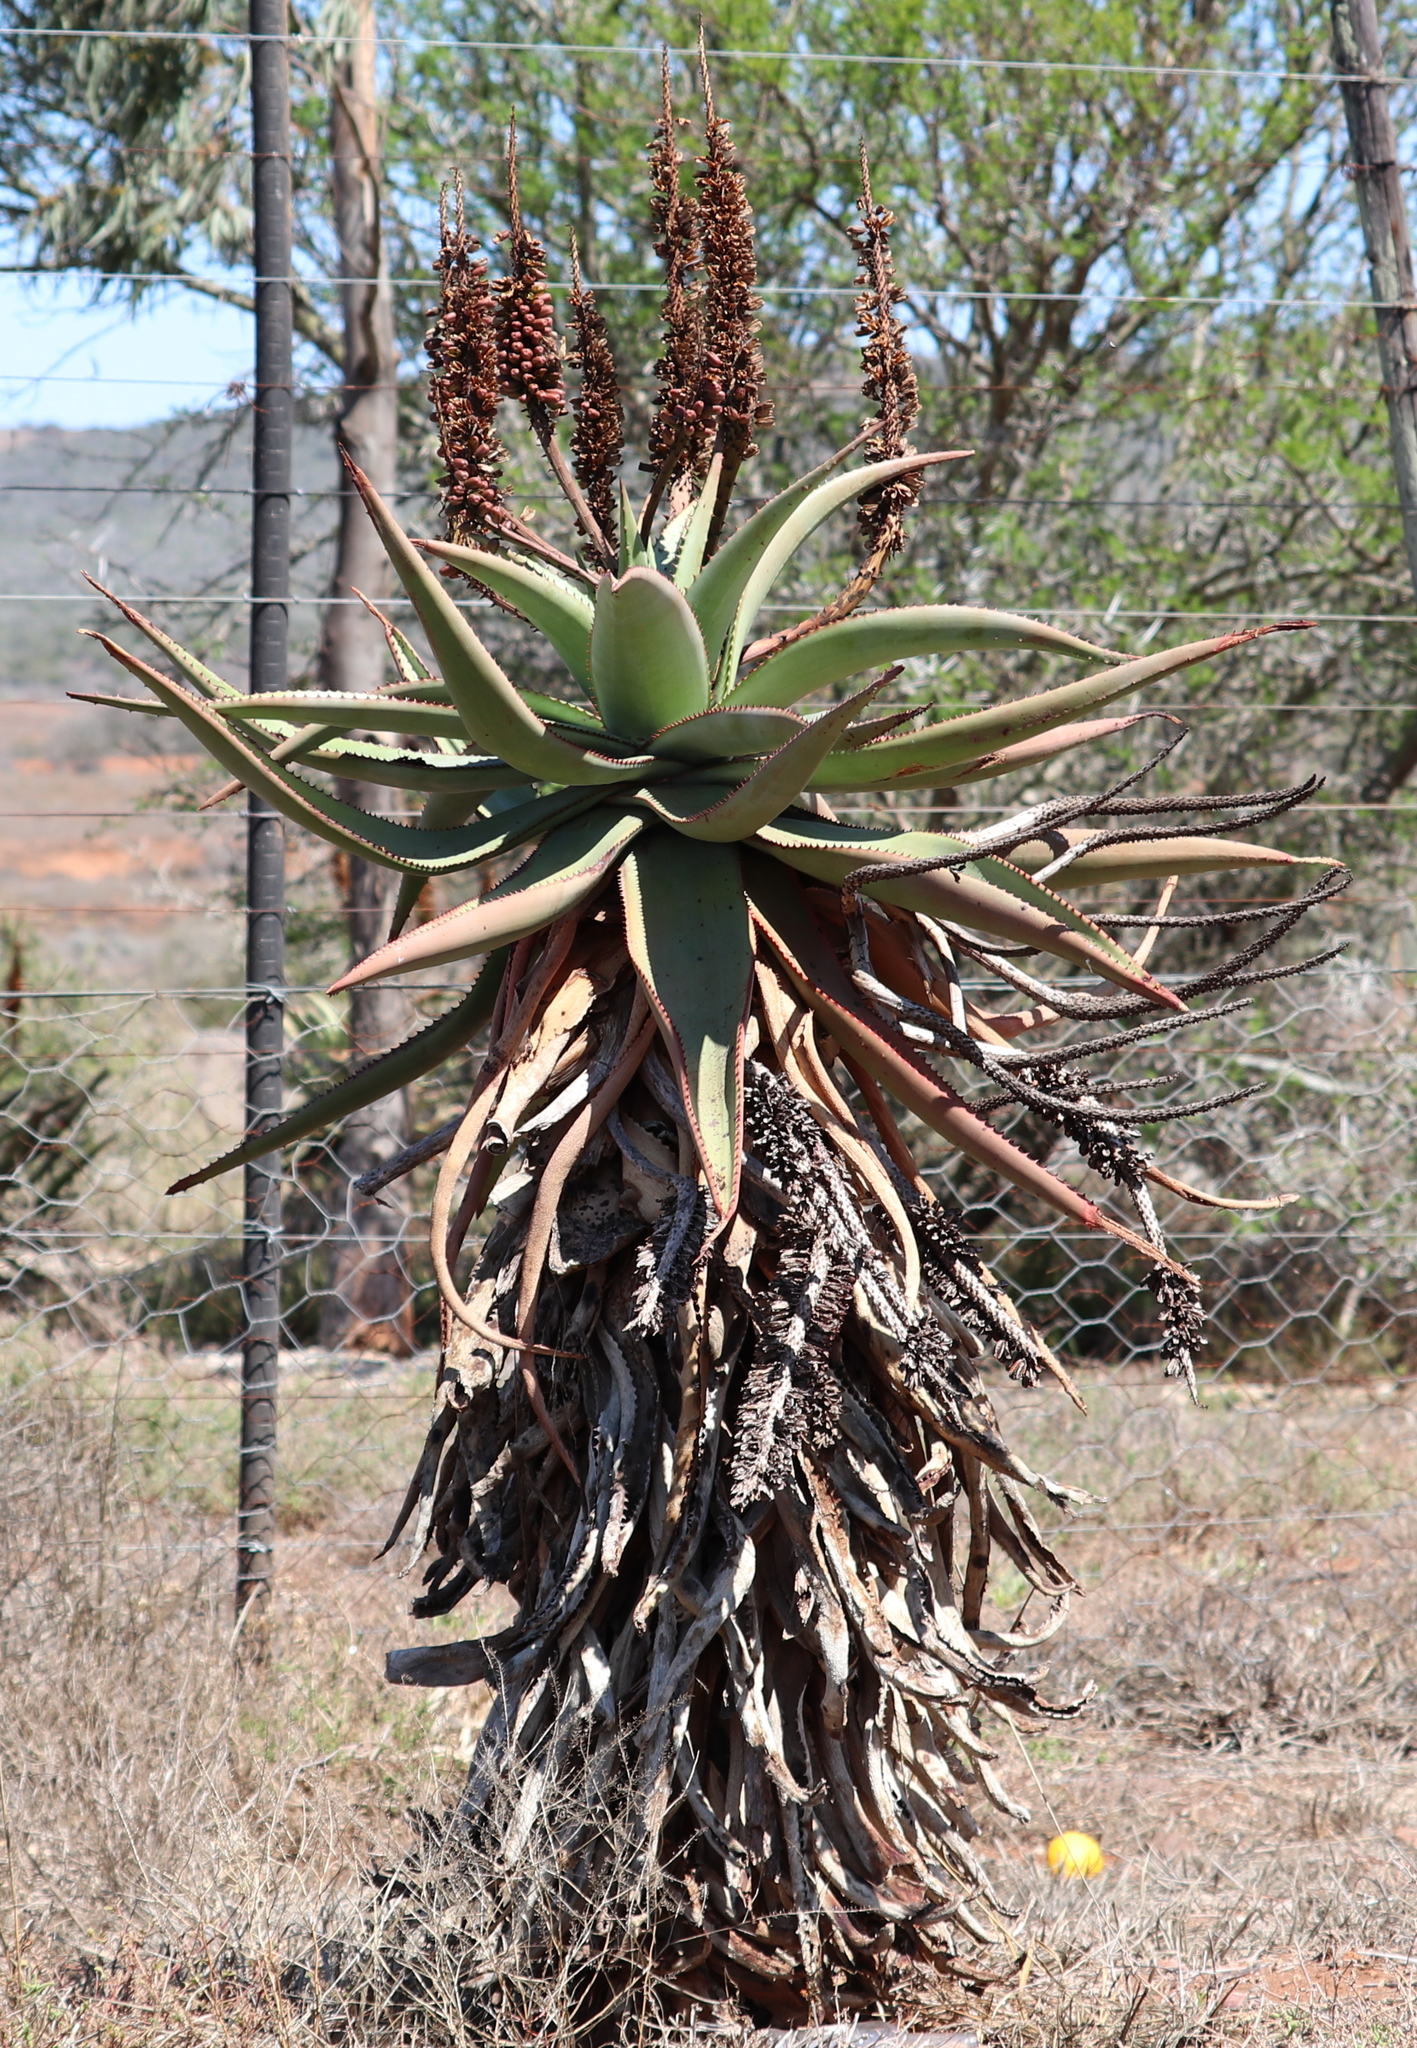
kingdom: Plantae
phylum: Tracheophyta
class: Liliopsida
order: Asparagales
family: Asphodelaceae
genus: Aloe
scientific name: Aloe africana
